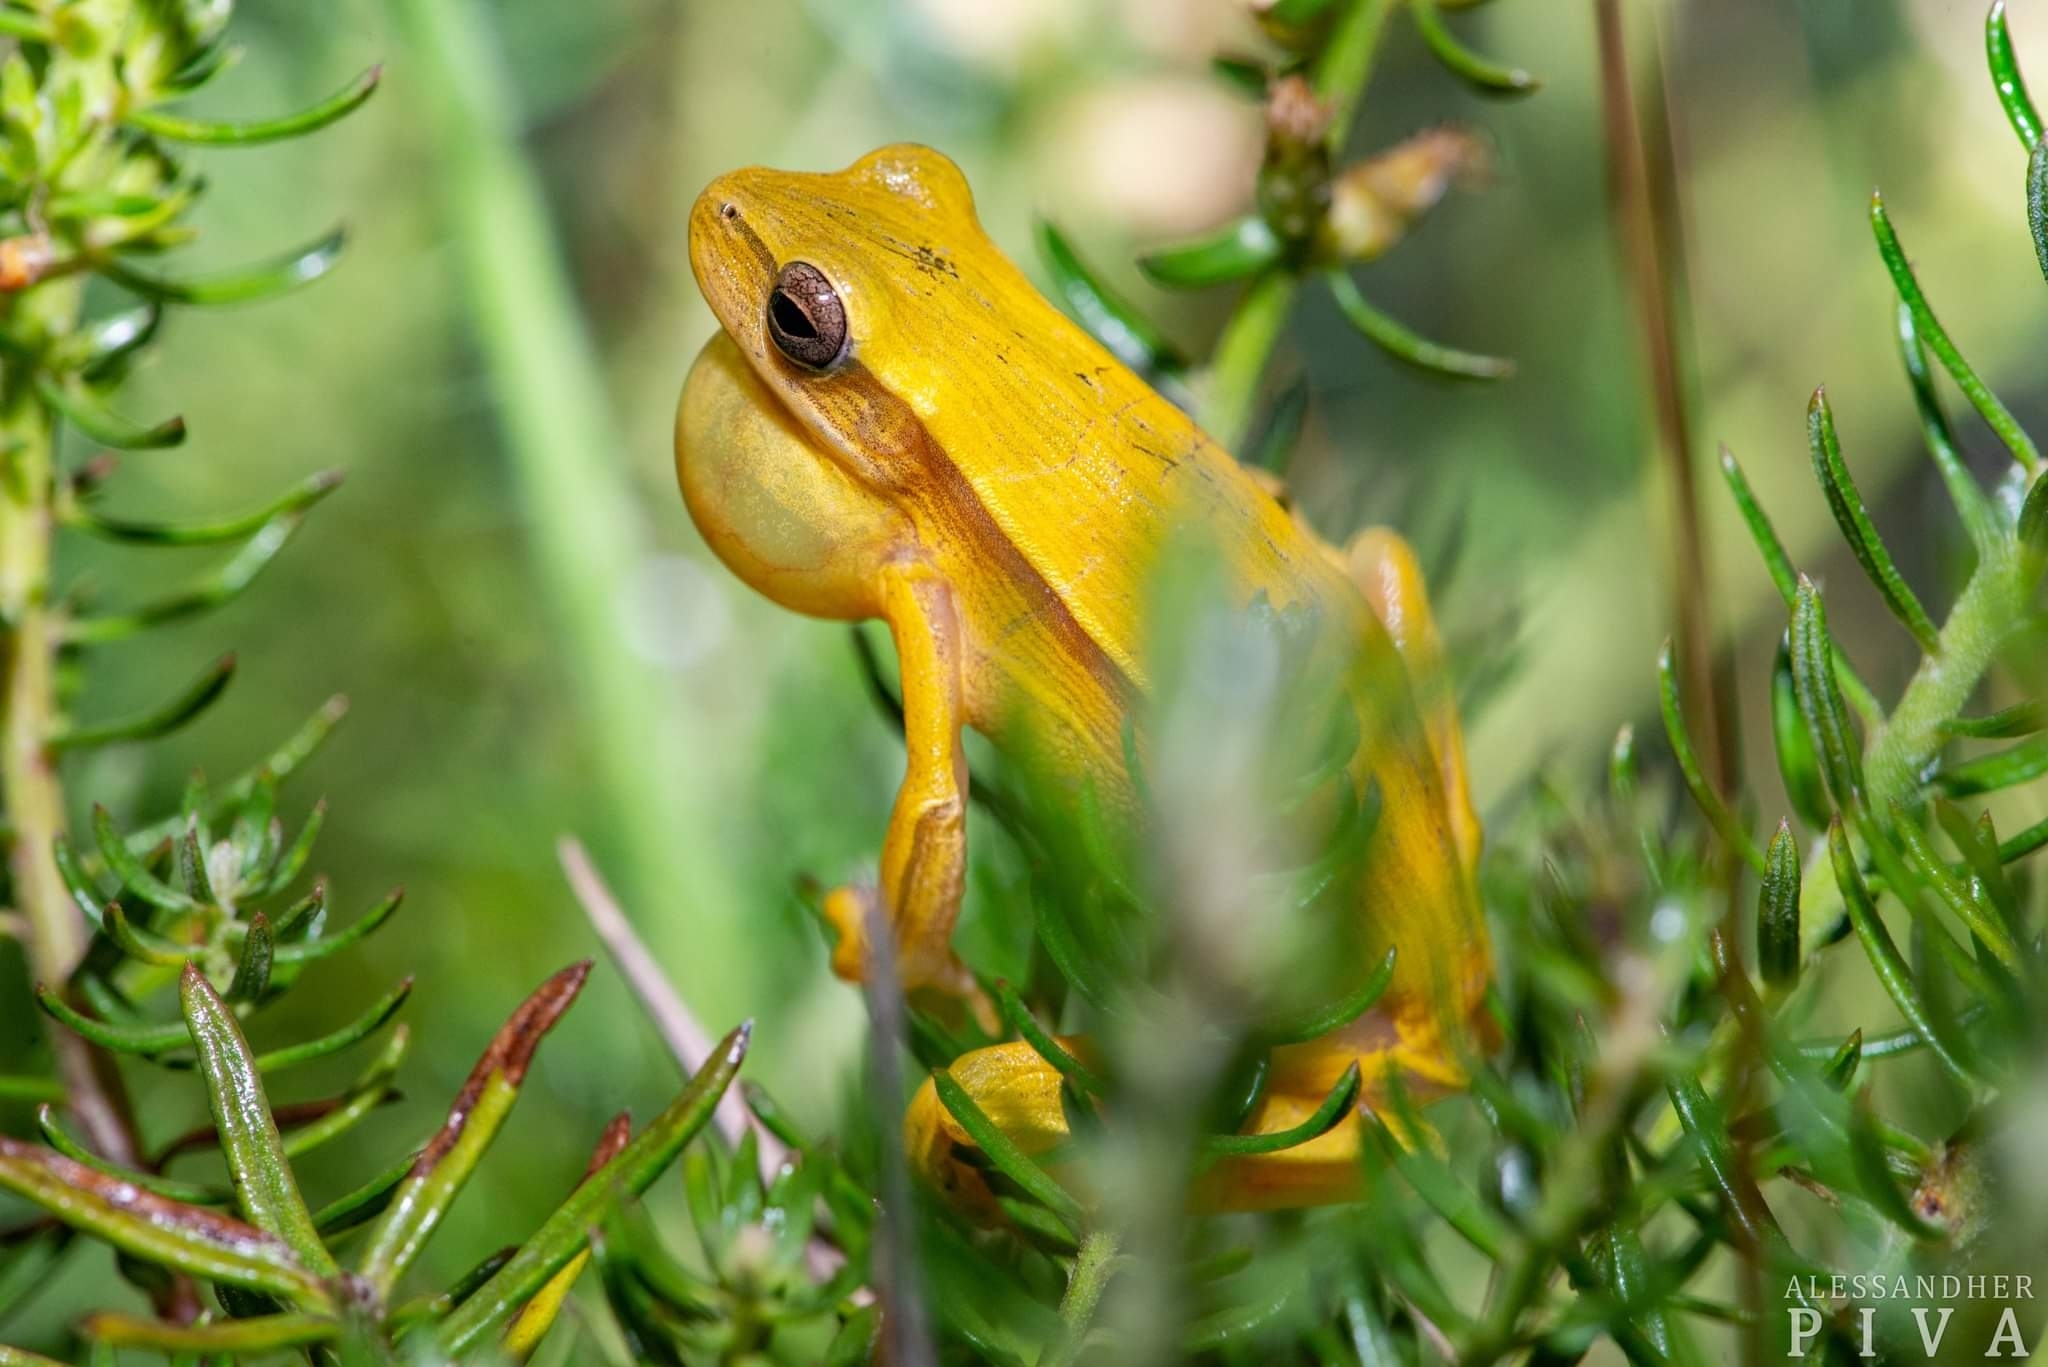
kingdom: Animalia
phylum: Chordata
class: Amphibia
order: Anura
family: Hylidae
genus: Boana
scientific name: Boana leptolineata
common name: Fine-lined treefrog
